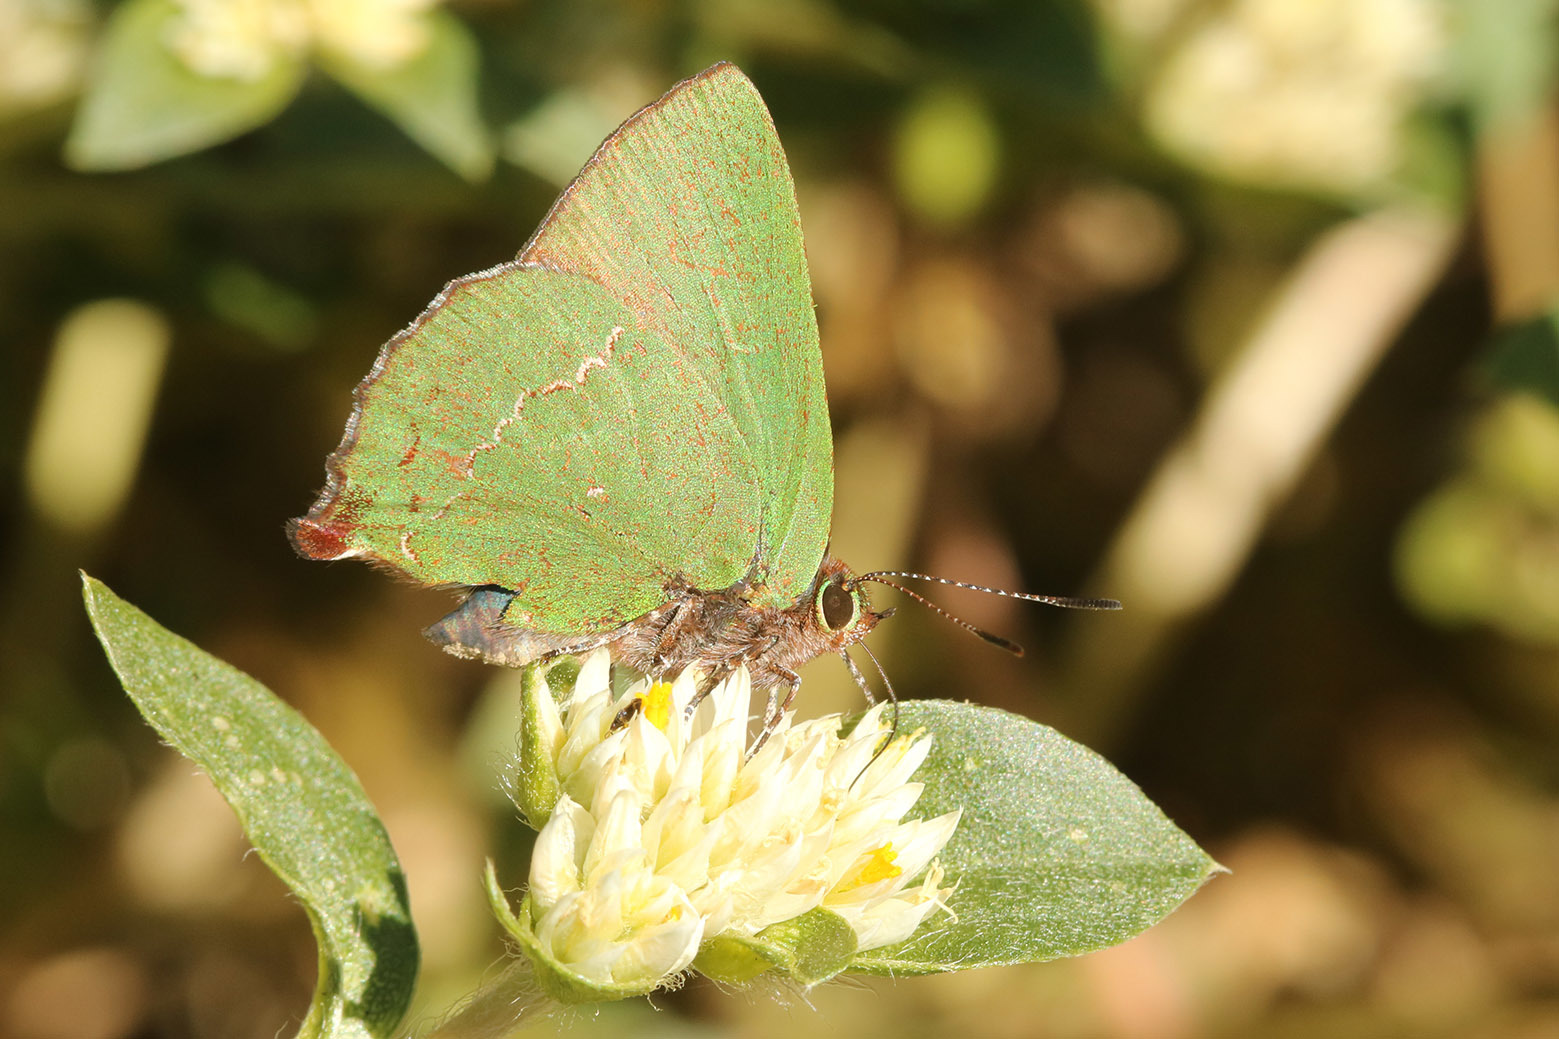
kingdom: Animalia
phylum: Arthropoda
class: Insecta
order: Lepidoptera
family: Lycaenidae
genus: Cyanophrys
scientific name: Cyanophrys
